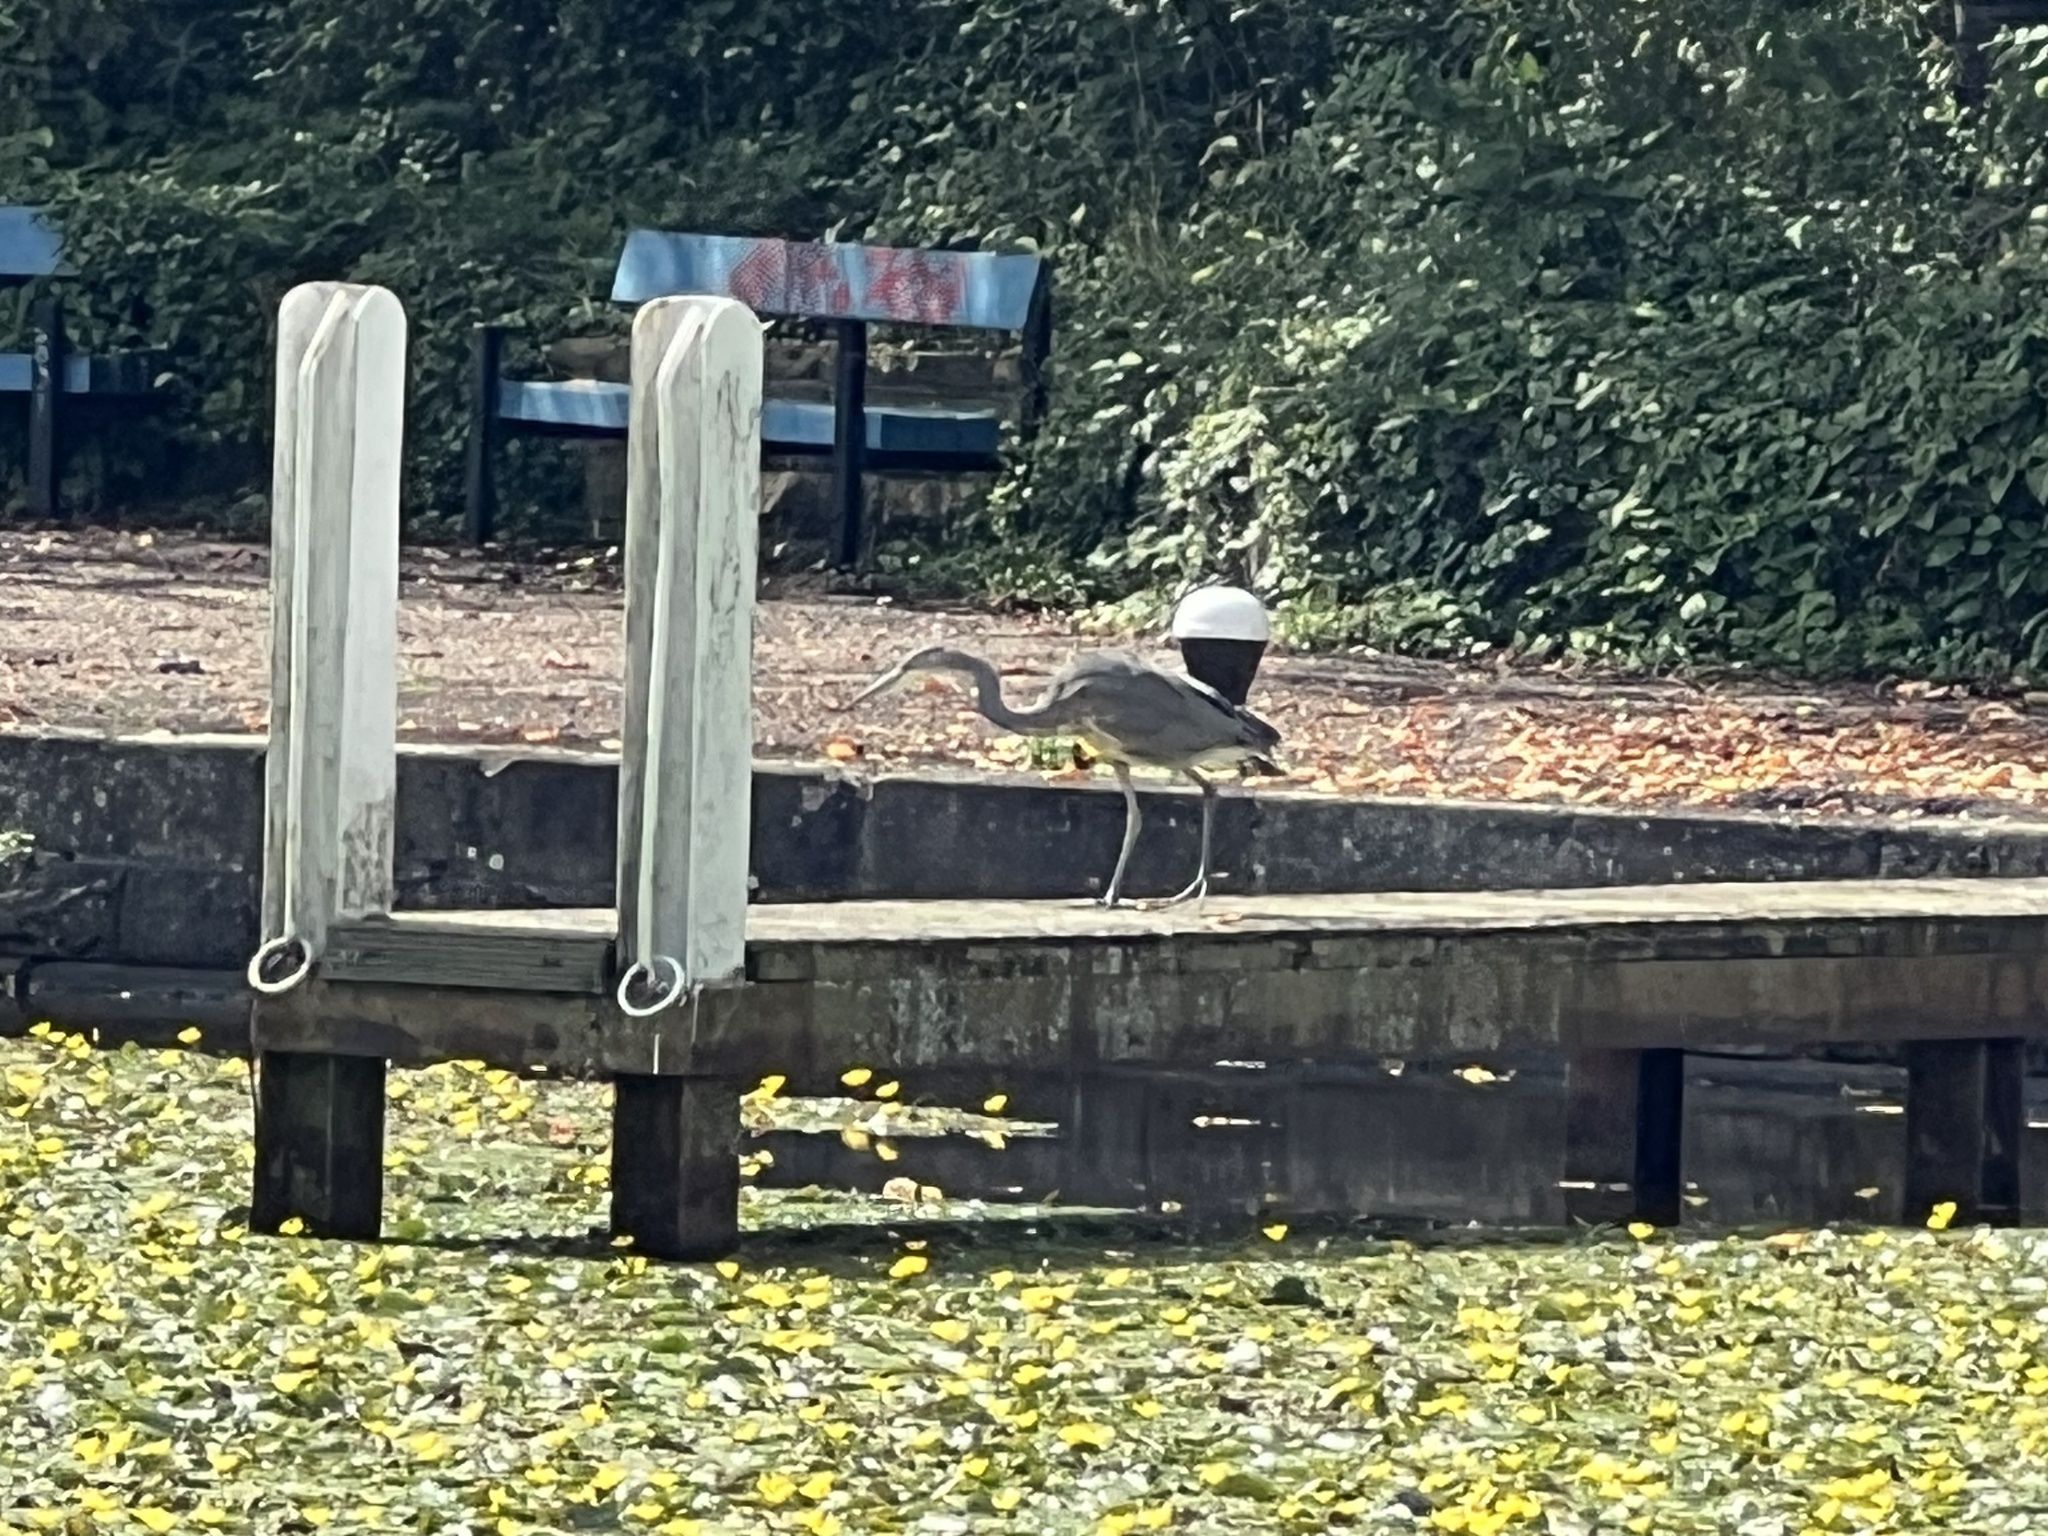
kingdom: Animalia
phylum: Chordata
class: Aves
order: Pelecaniformes
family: Ardeidae
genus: Ardea
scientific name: Ardea cinerea
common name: Grey heron
